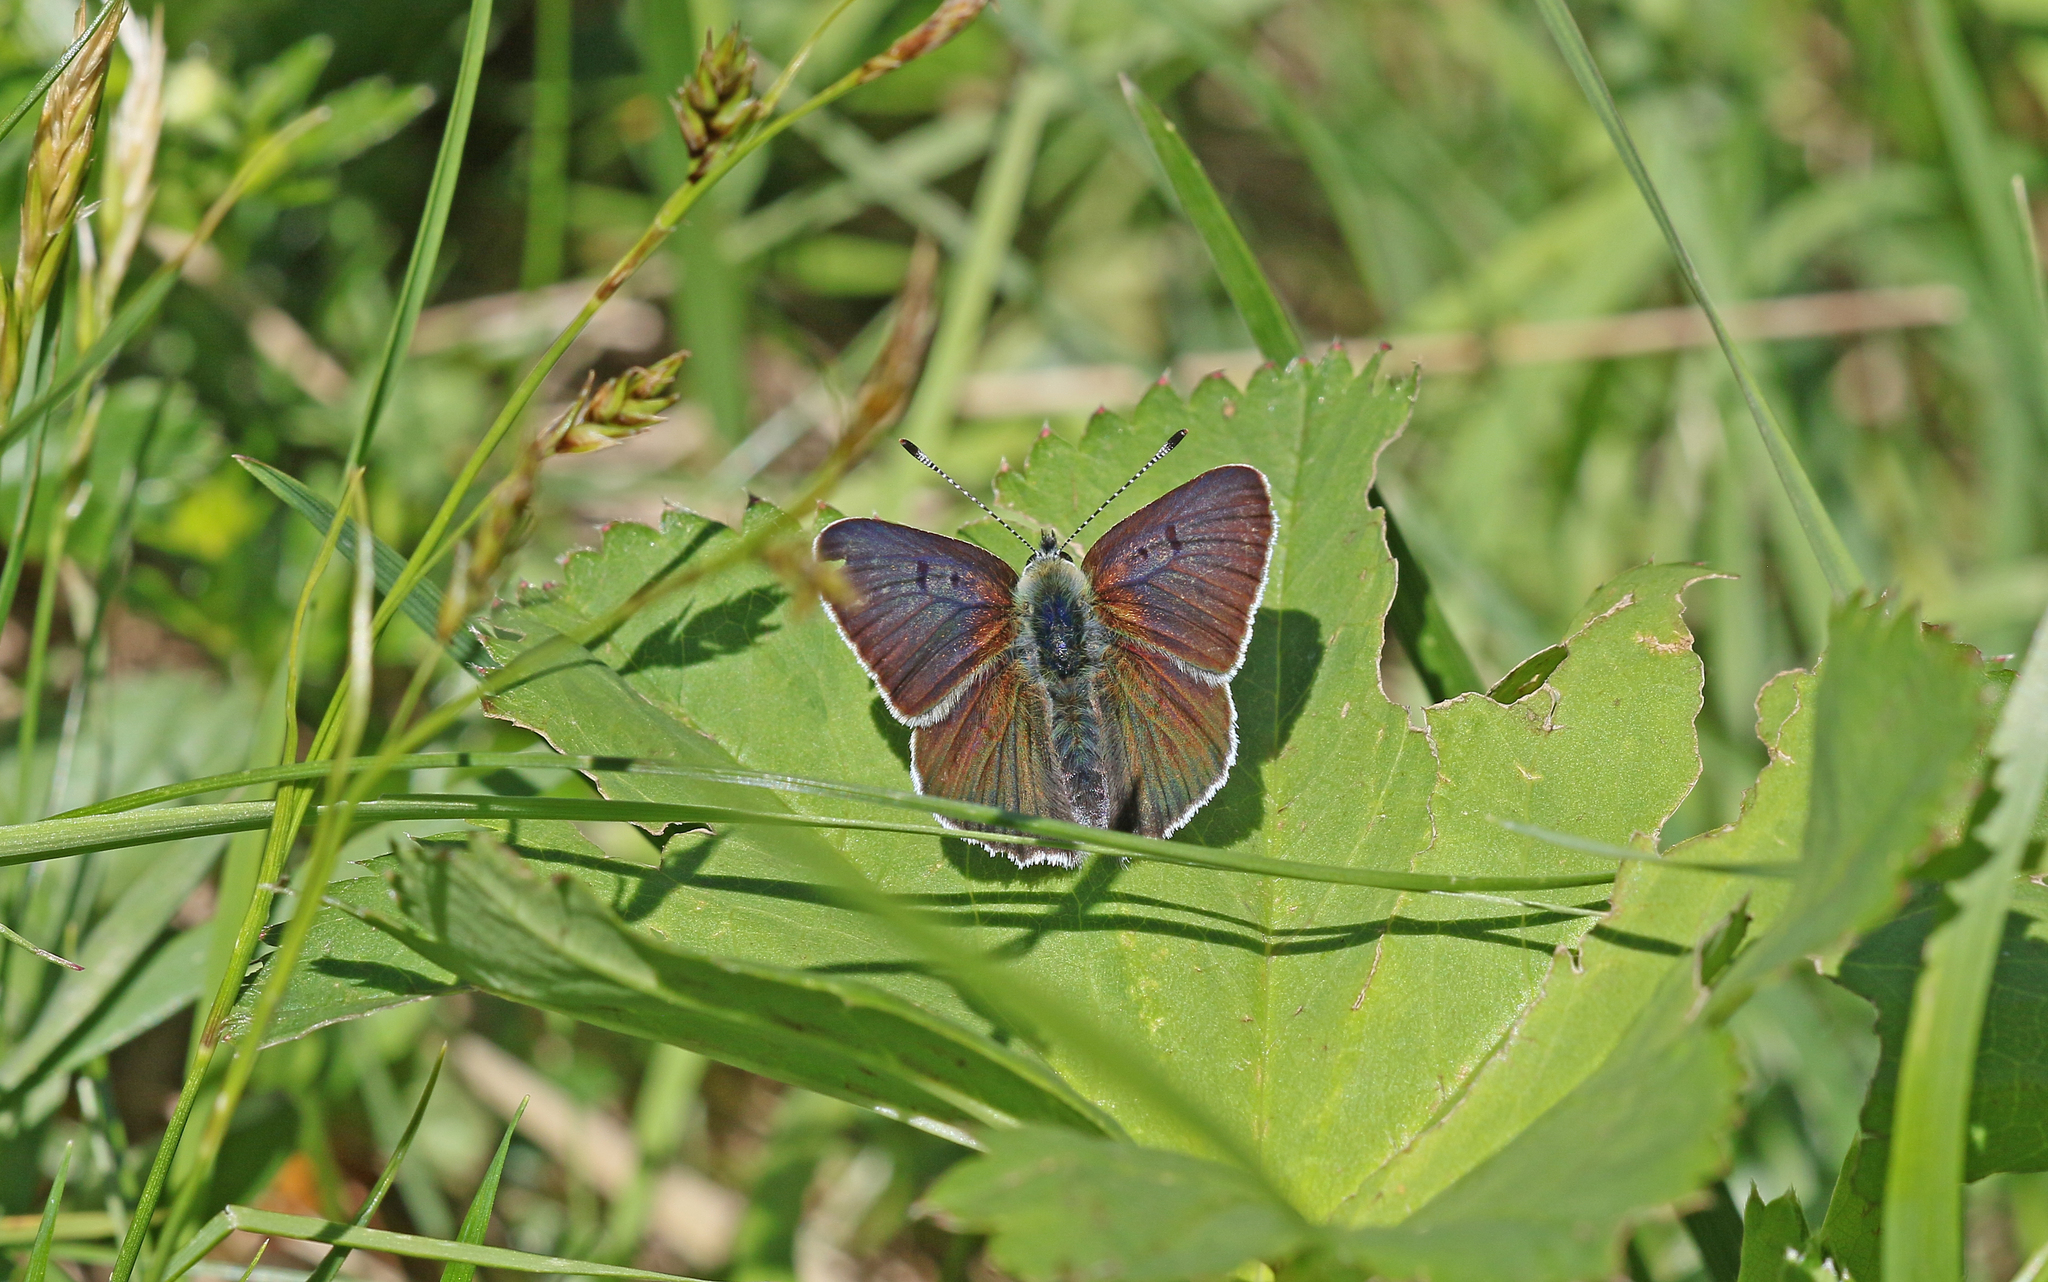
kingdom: Animalia
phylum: Arthropoda
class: Insecta
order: Lepidoptera
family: Lycaenidae
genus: Loweia
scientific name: Loweia tityrus
